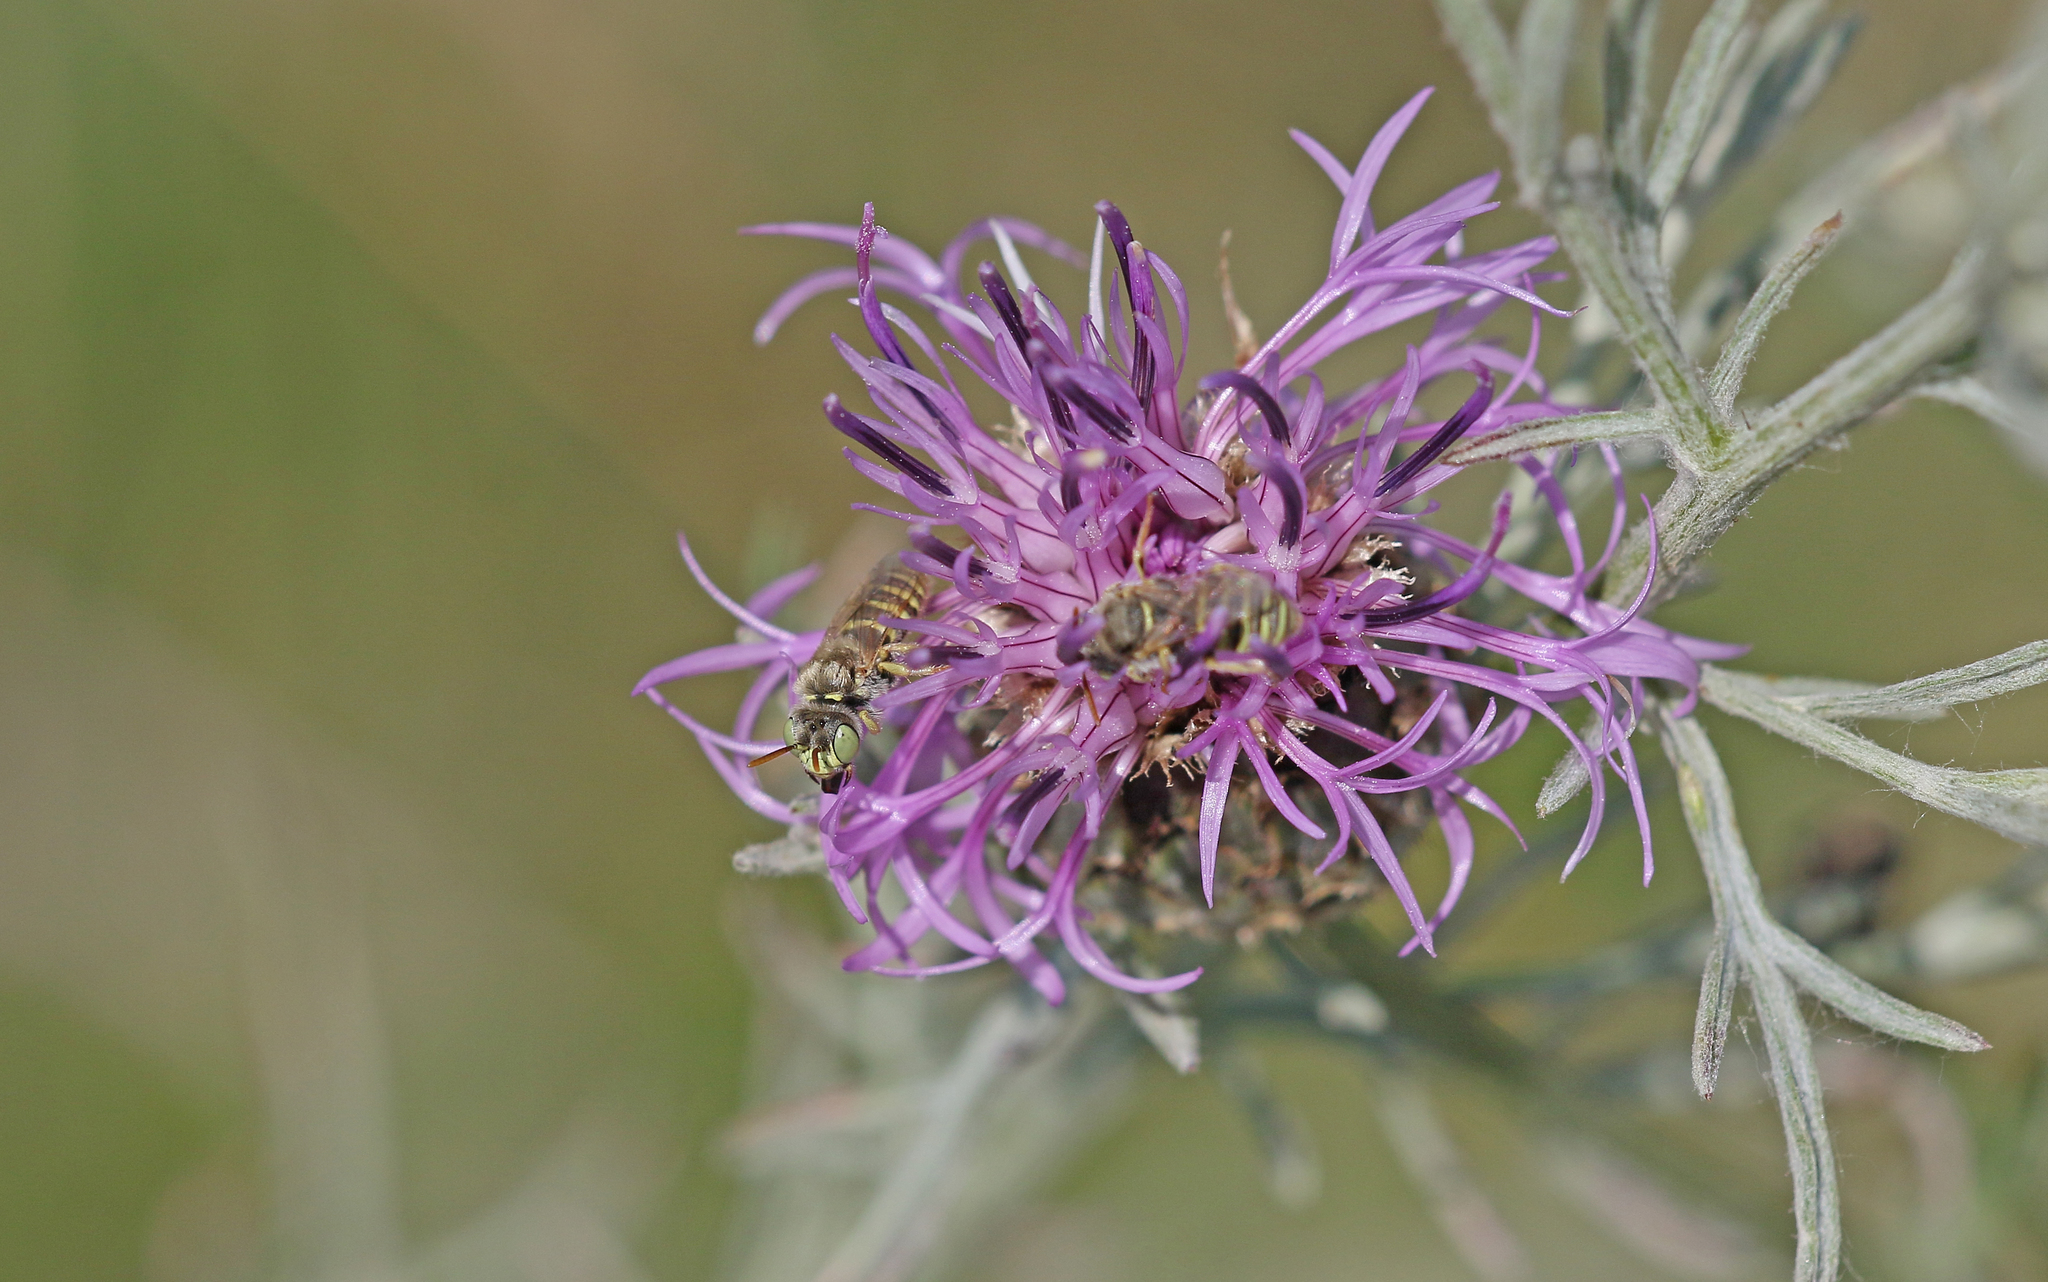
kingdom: Animalia
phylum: Arthropoda
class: Insecta
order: Hymenoptera
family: Andrenidae
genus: Camptopoeum
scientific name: Camptopoeum friesei
